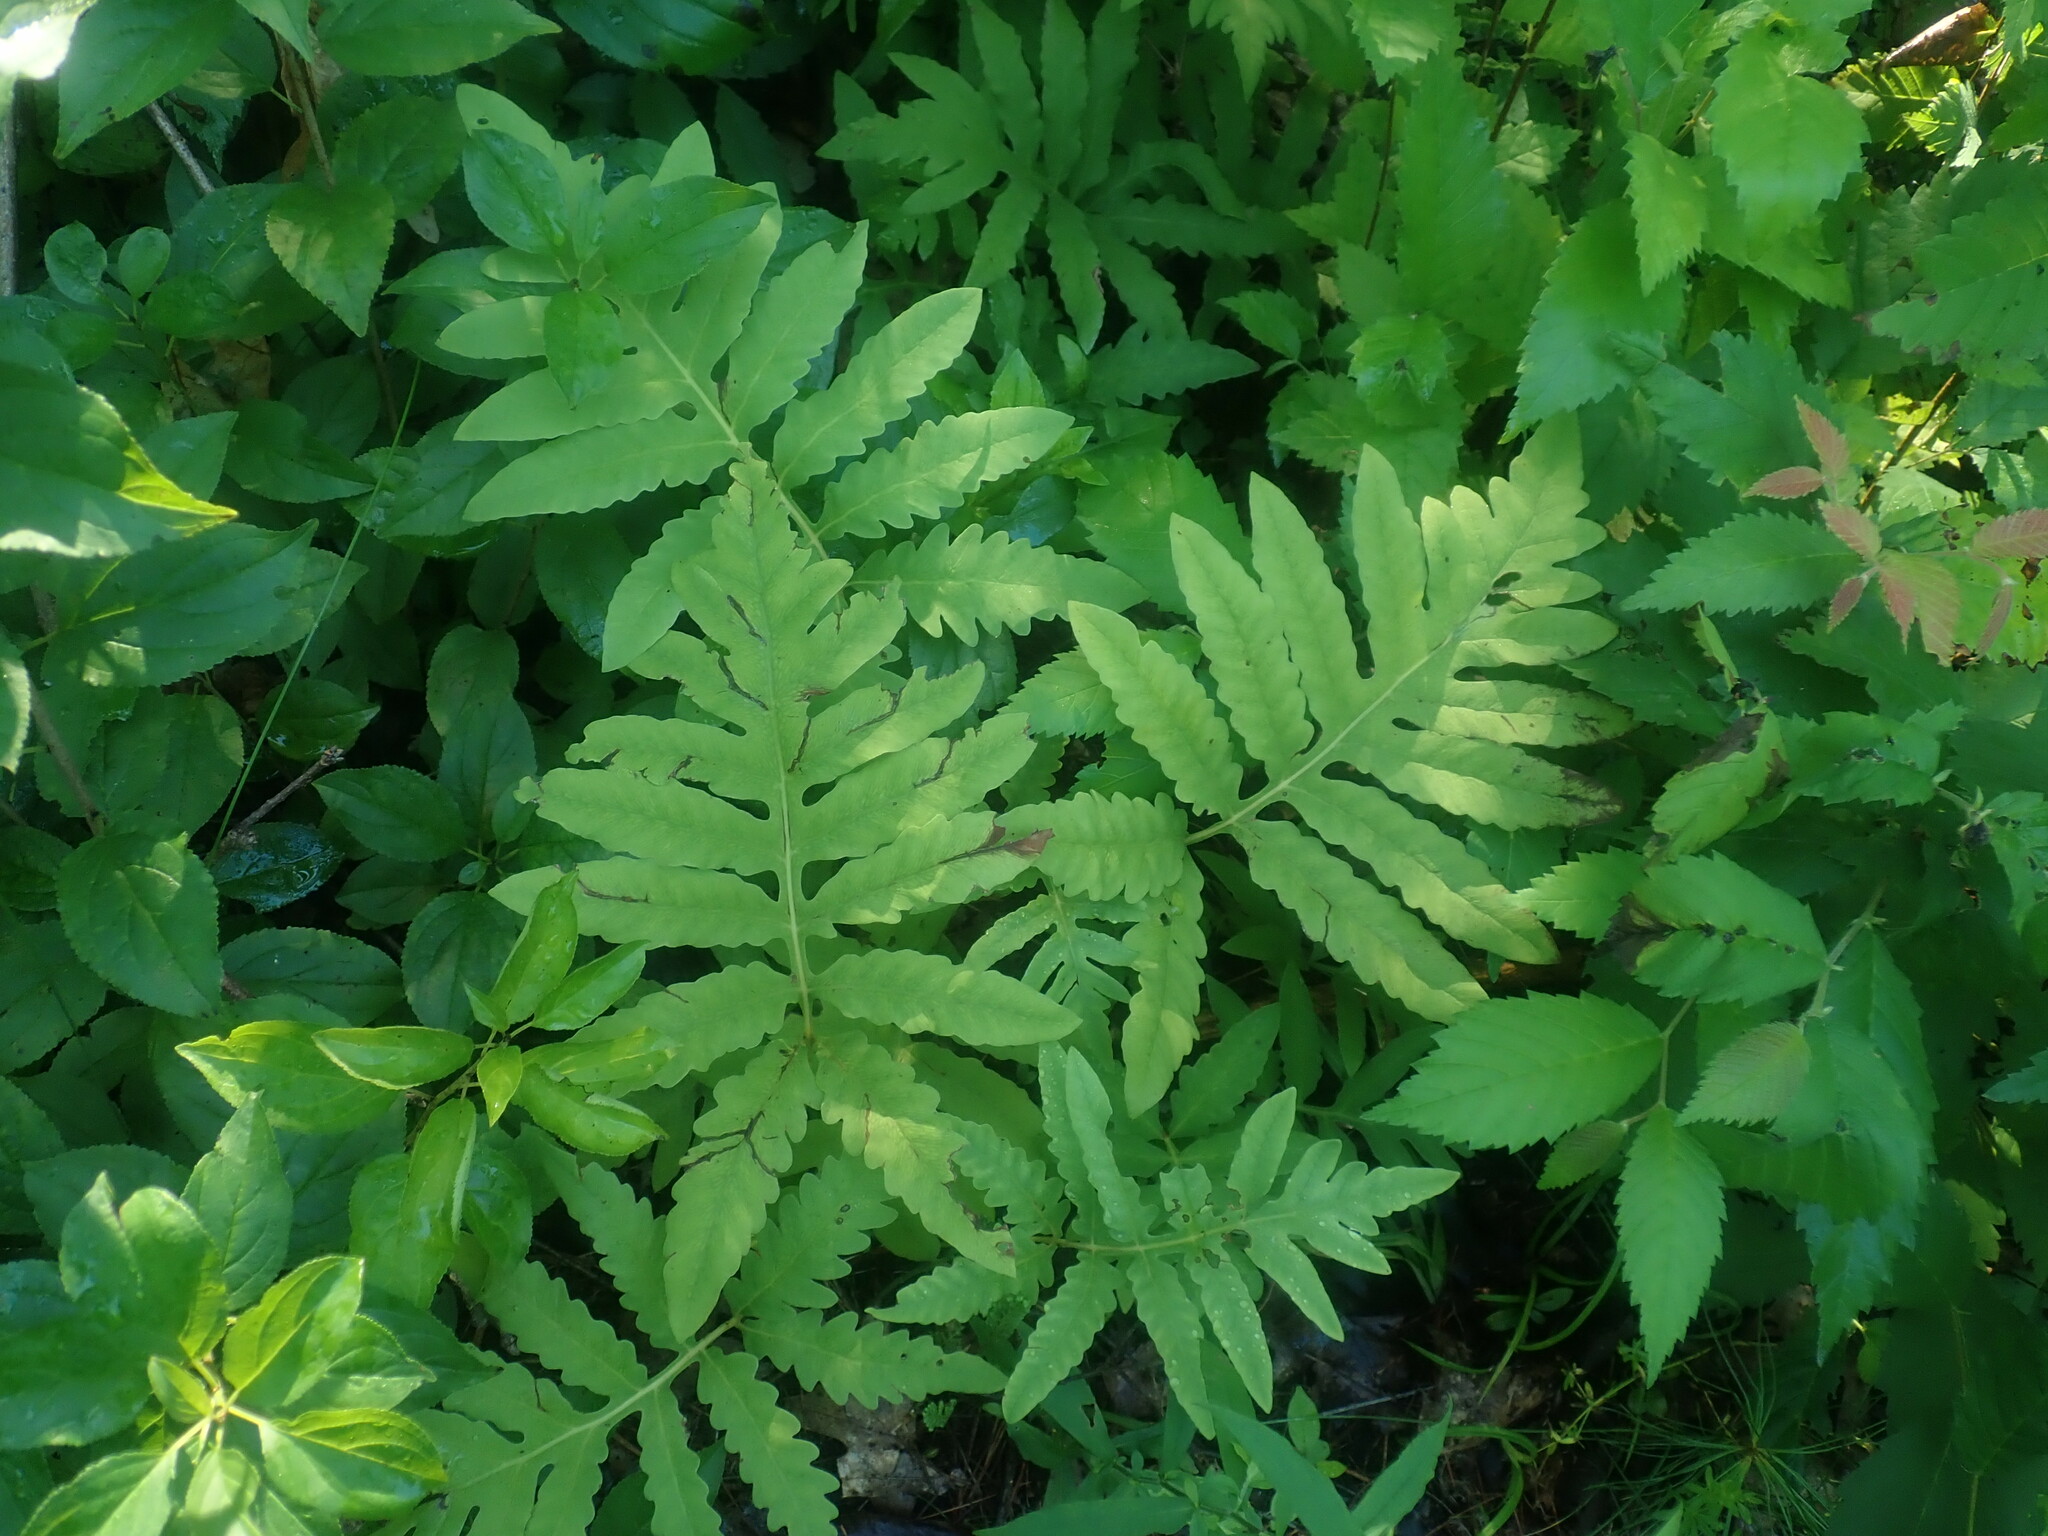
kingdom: Plantae
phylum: Tracheophyta
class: Polypodiopsida
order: Polypodiales
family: Onocleaceae
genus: Onoclea
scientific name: Onoclea sensibilis
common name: Sensitive fern
